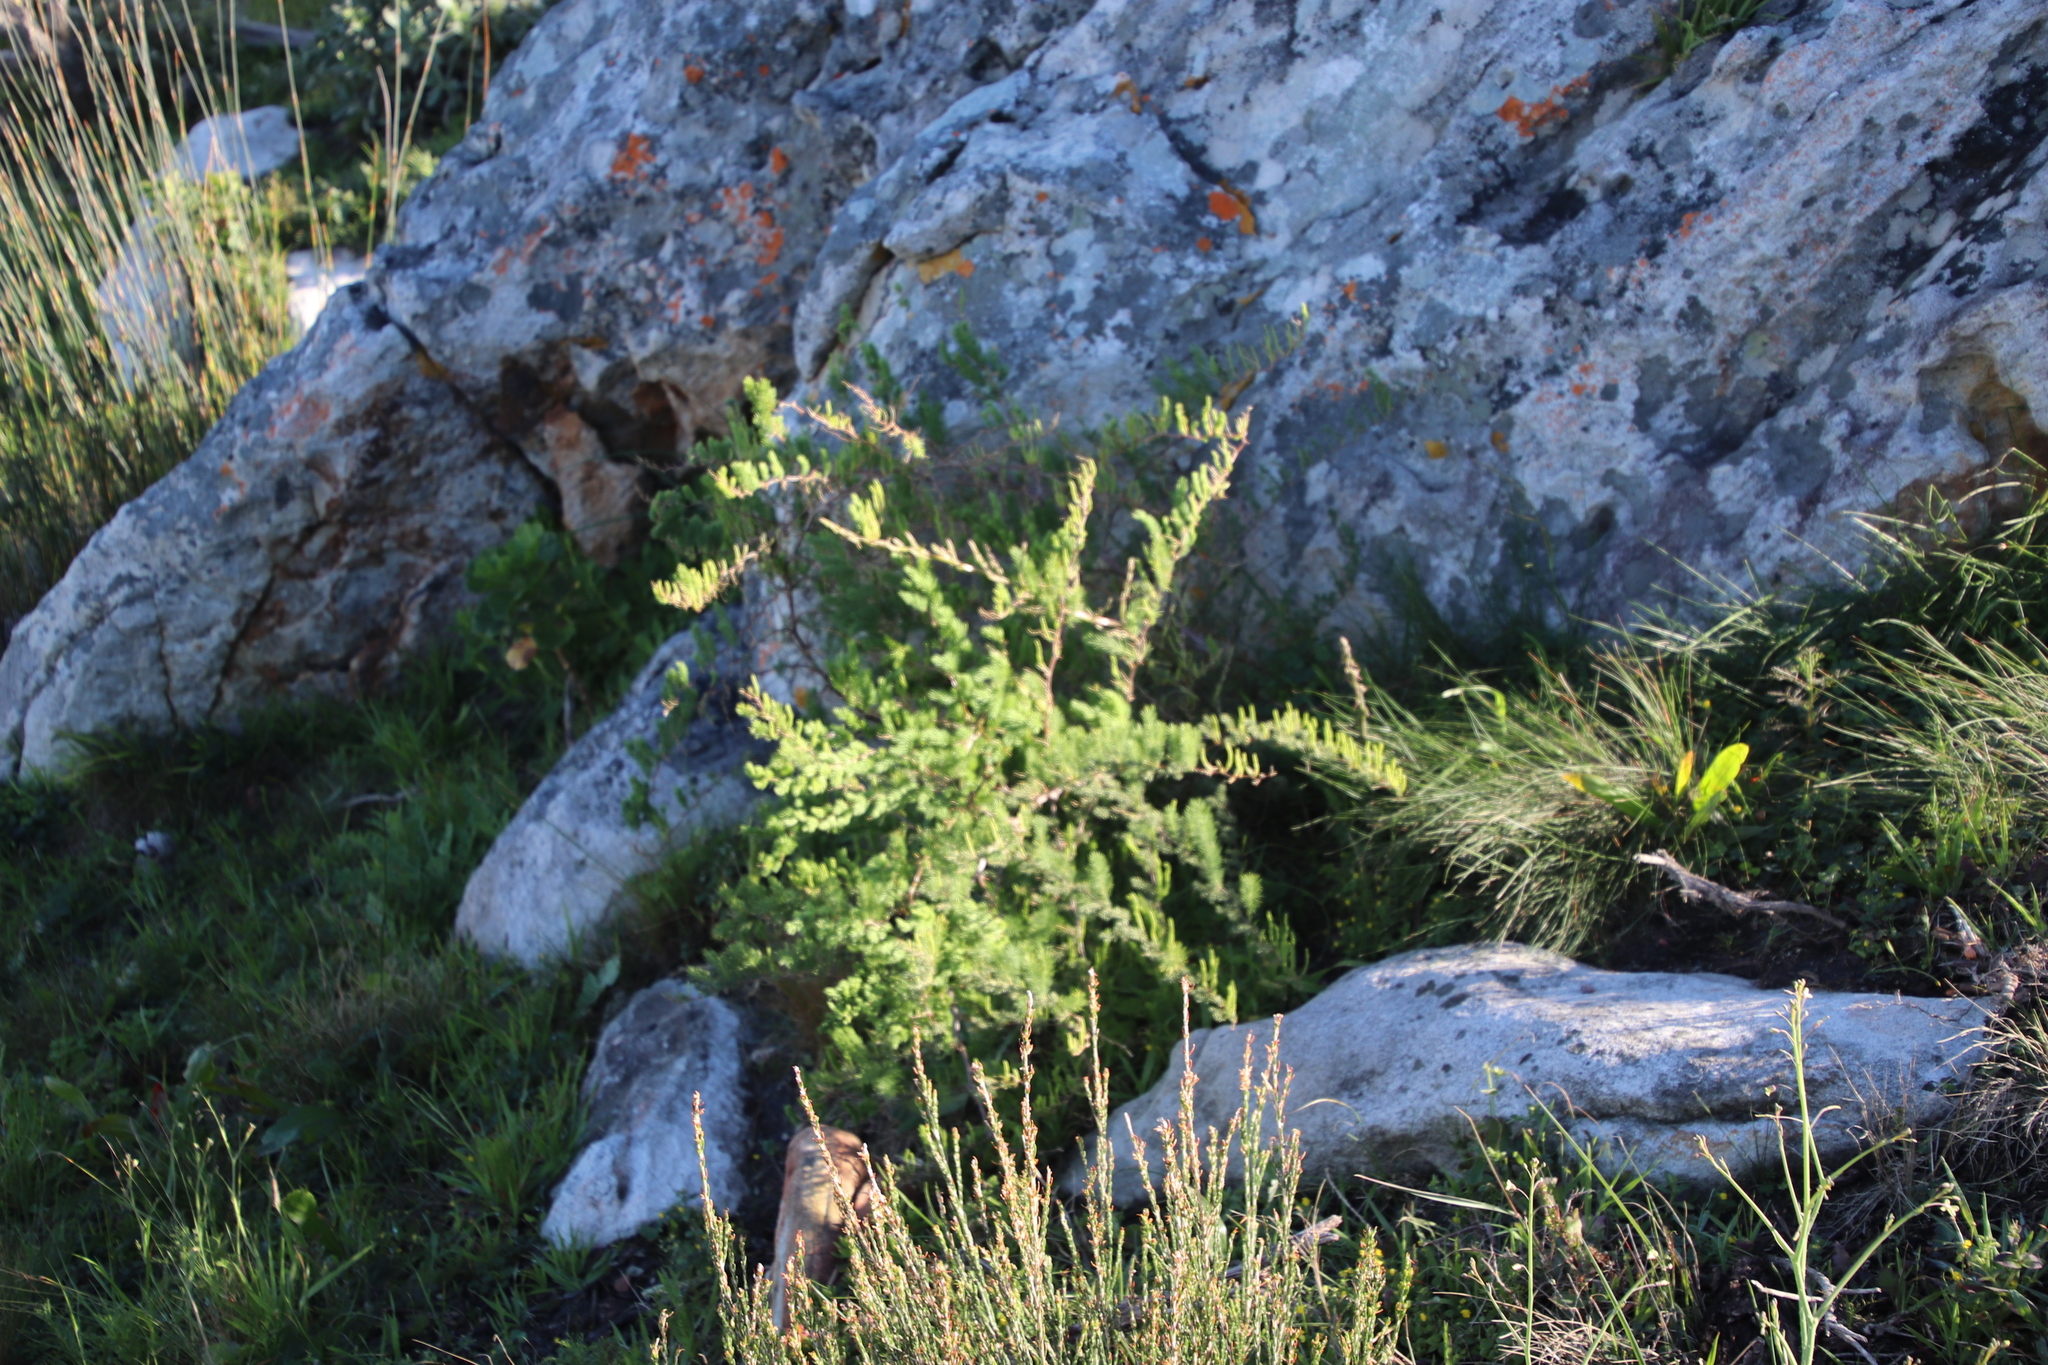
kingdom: Plantae
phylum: Tracheophyta
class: Liliopsida
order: Asparagales
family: Asparagaceae
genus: Asparagus
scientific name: Asparagus rubicundus
